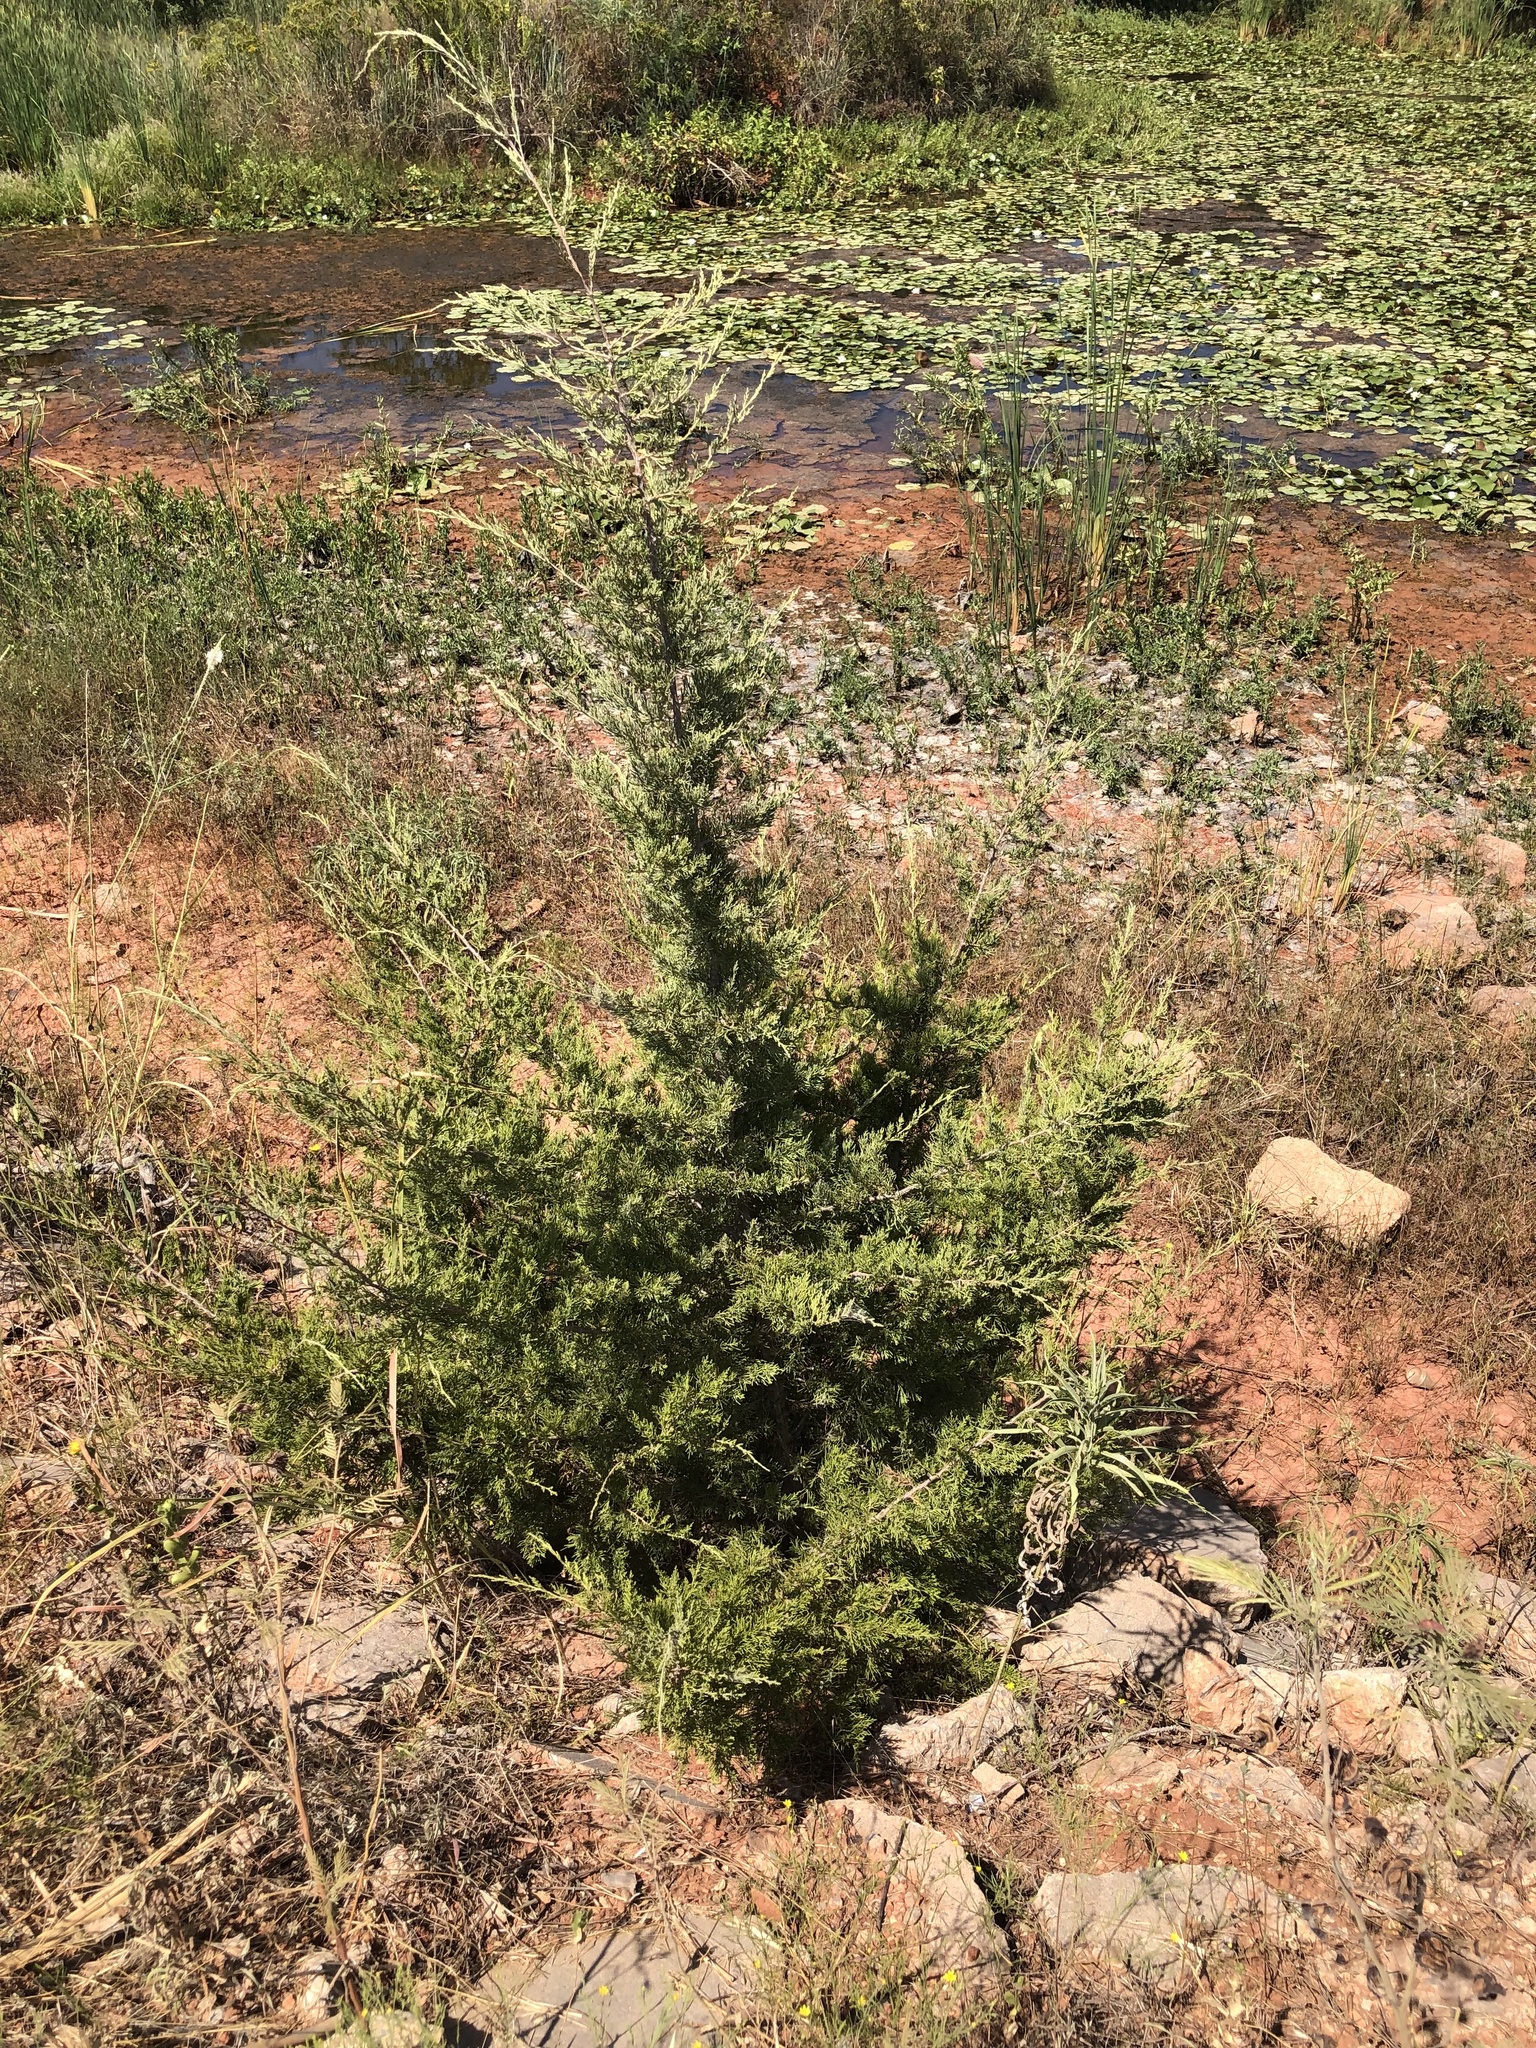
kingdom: Plantae
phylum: Tracheophyta
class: Pinopsida
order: Pinales
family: Cupressaceae
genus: Juniperus
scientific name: Juniperus virginiana
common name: Red juniper
